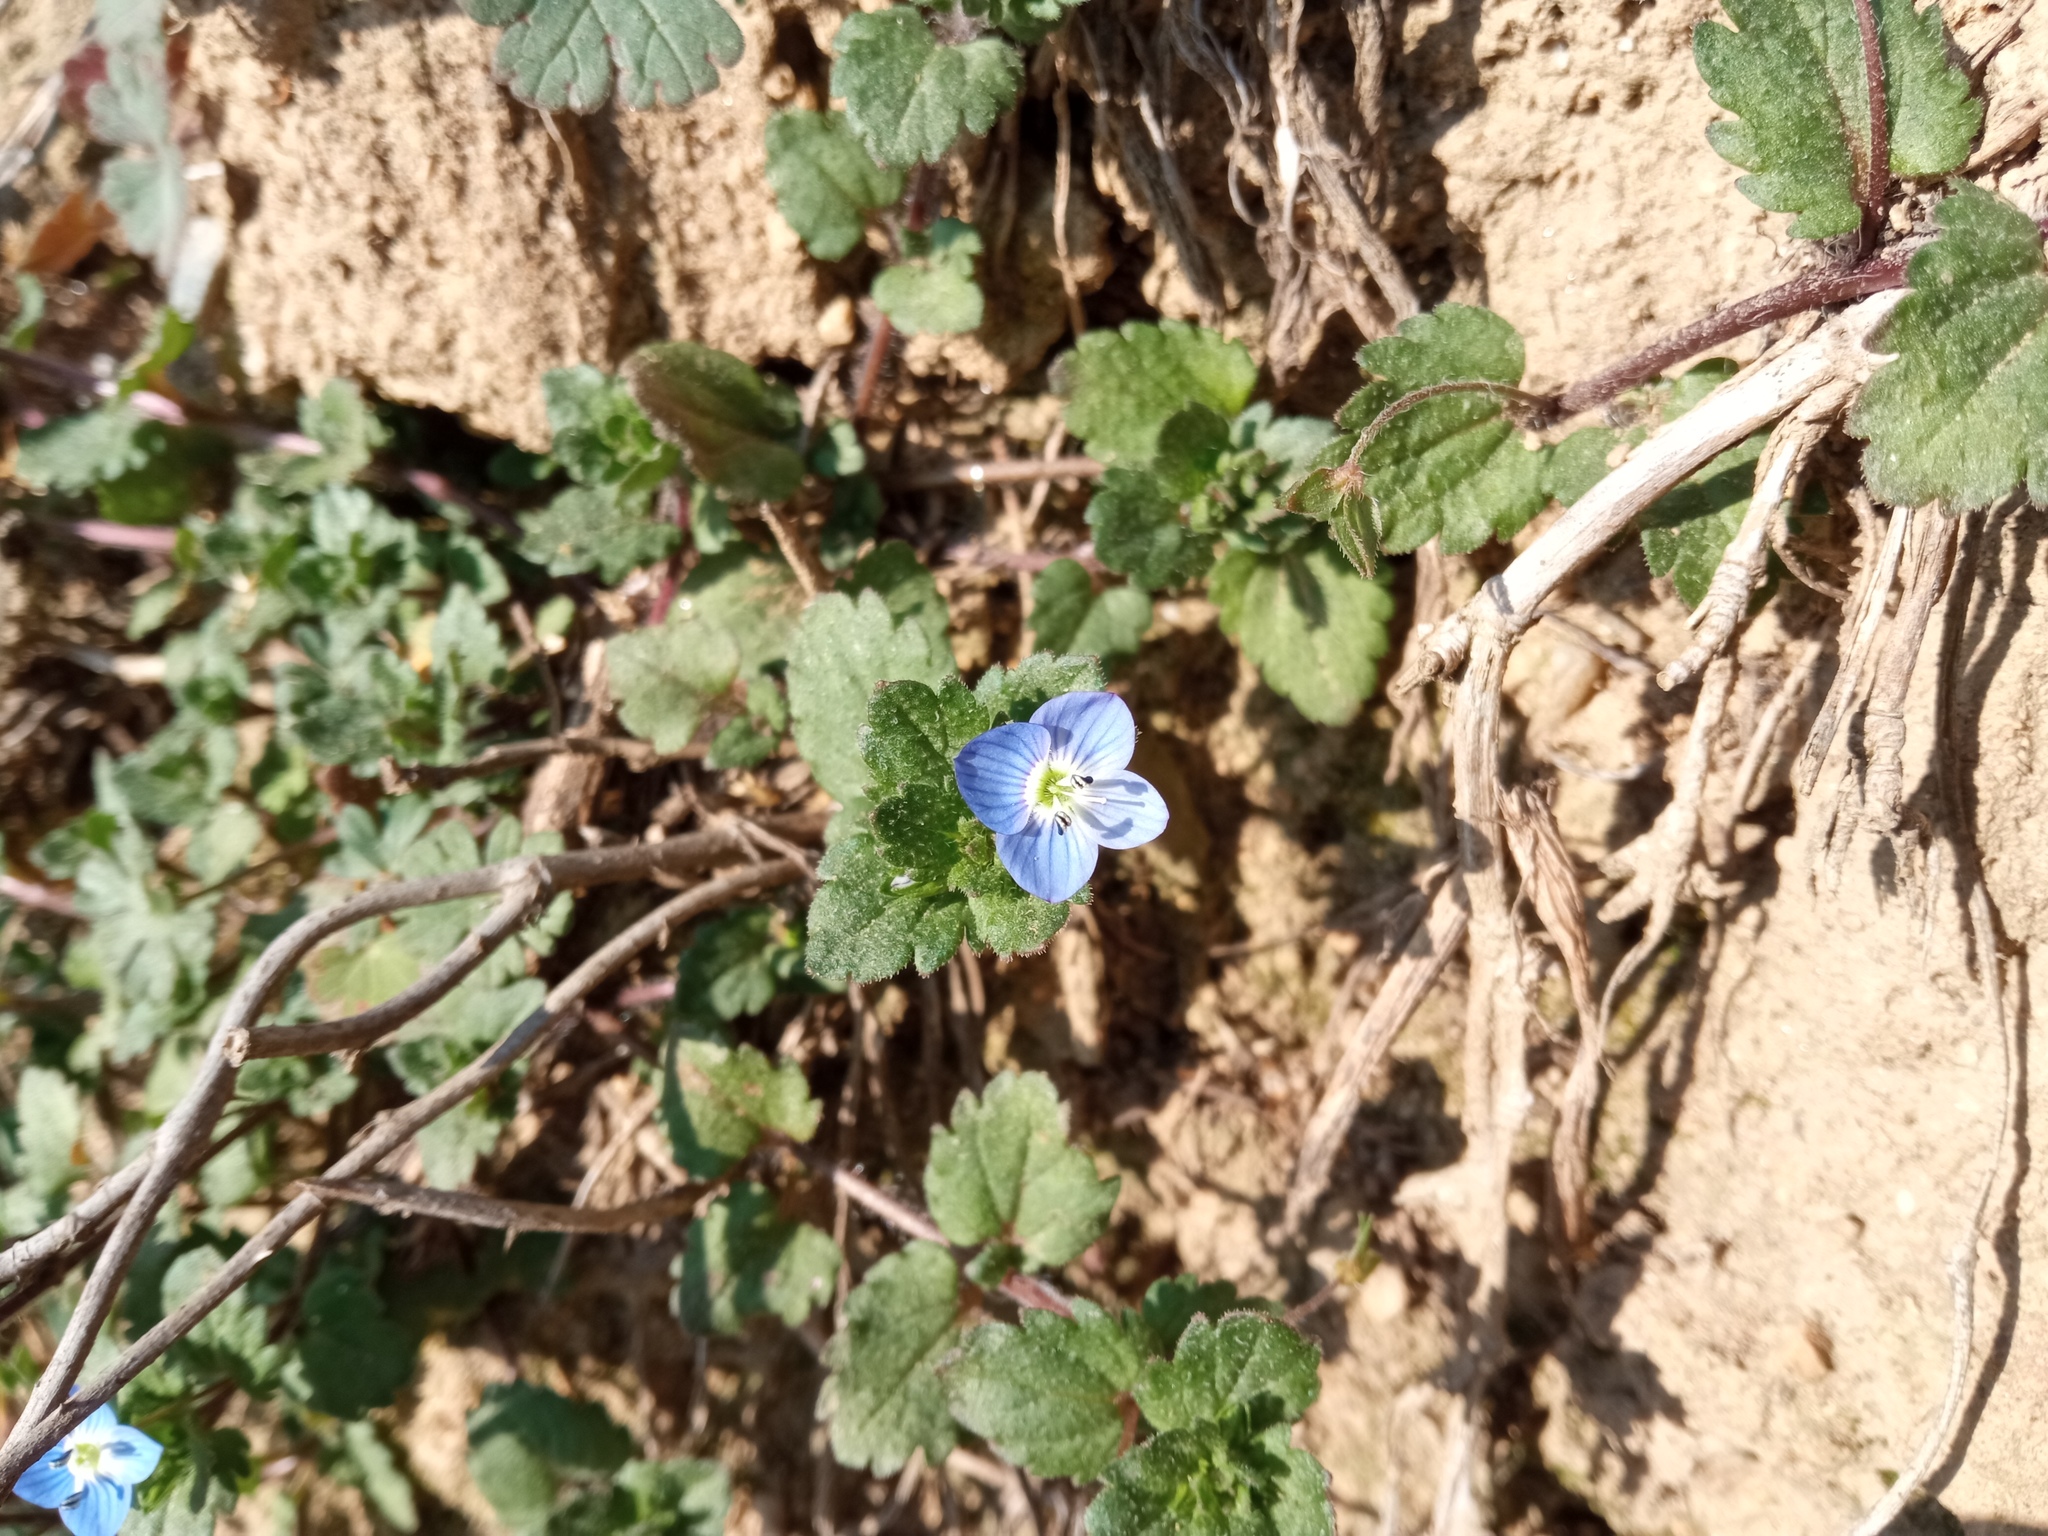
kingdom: Plantae
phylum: Tracheophyta
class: Magnoliopsida
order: Lamiales
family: Plantaginaceae
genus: Veronica
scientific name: Veronica persica
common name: Common field-speedwell
